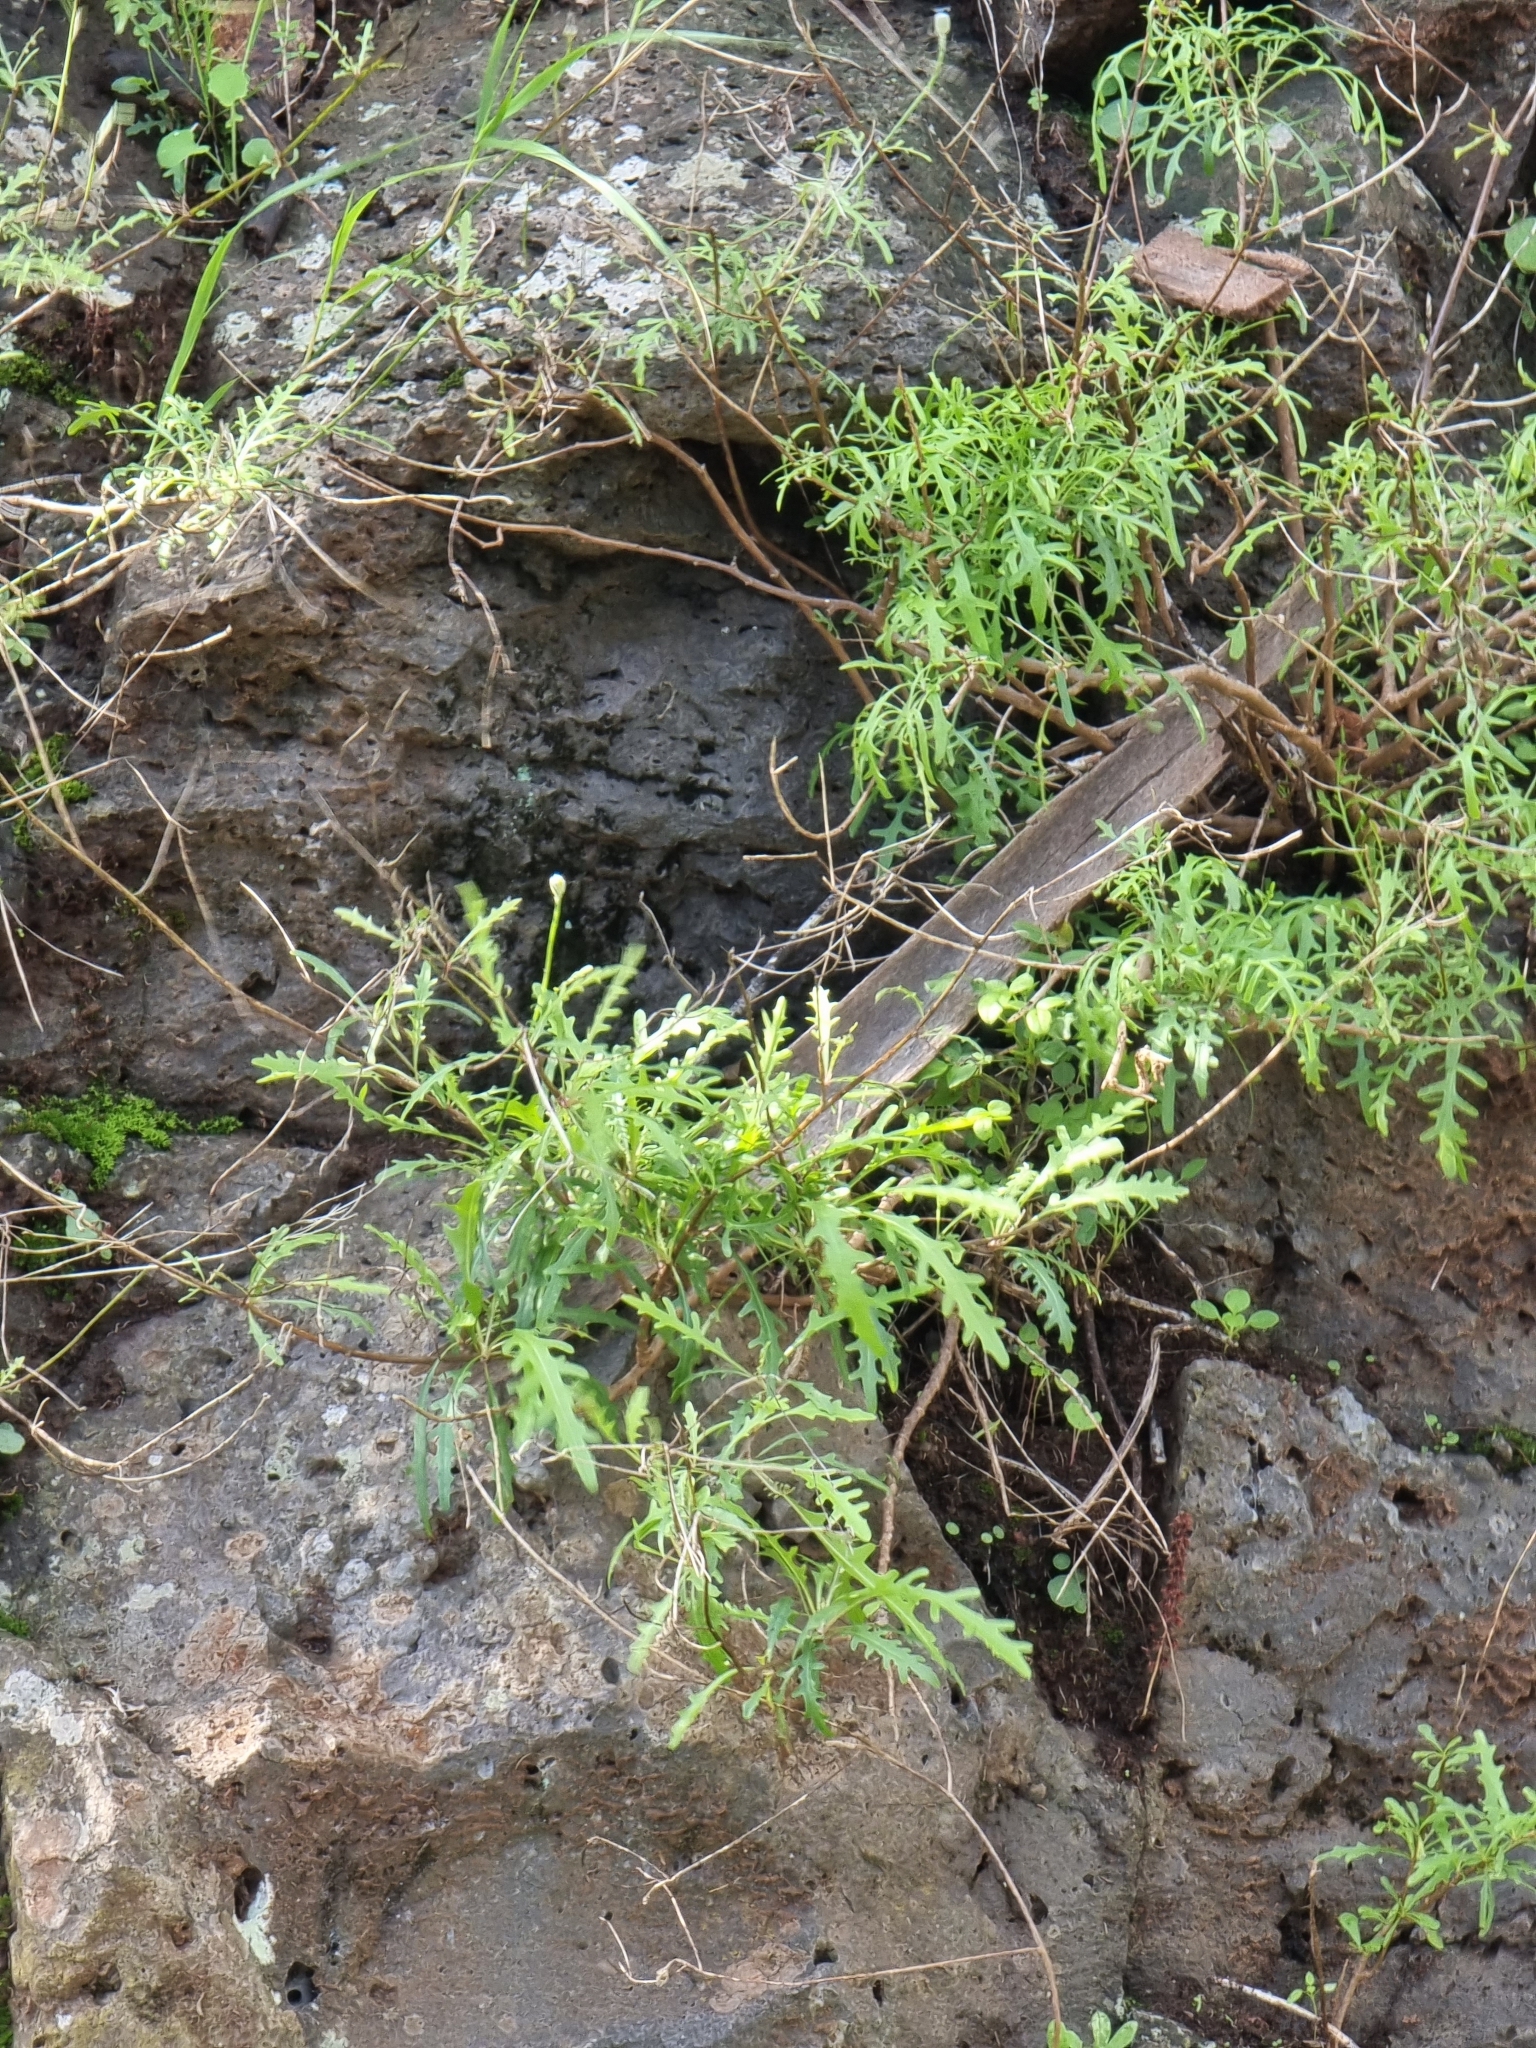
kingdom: Plantae
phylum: Tracheophyta
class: Magnoliopsida
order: Asterales
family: Asteraceae
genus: Tolpis
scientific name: Tolpis succulenta
